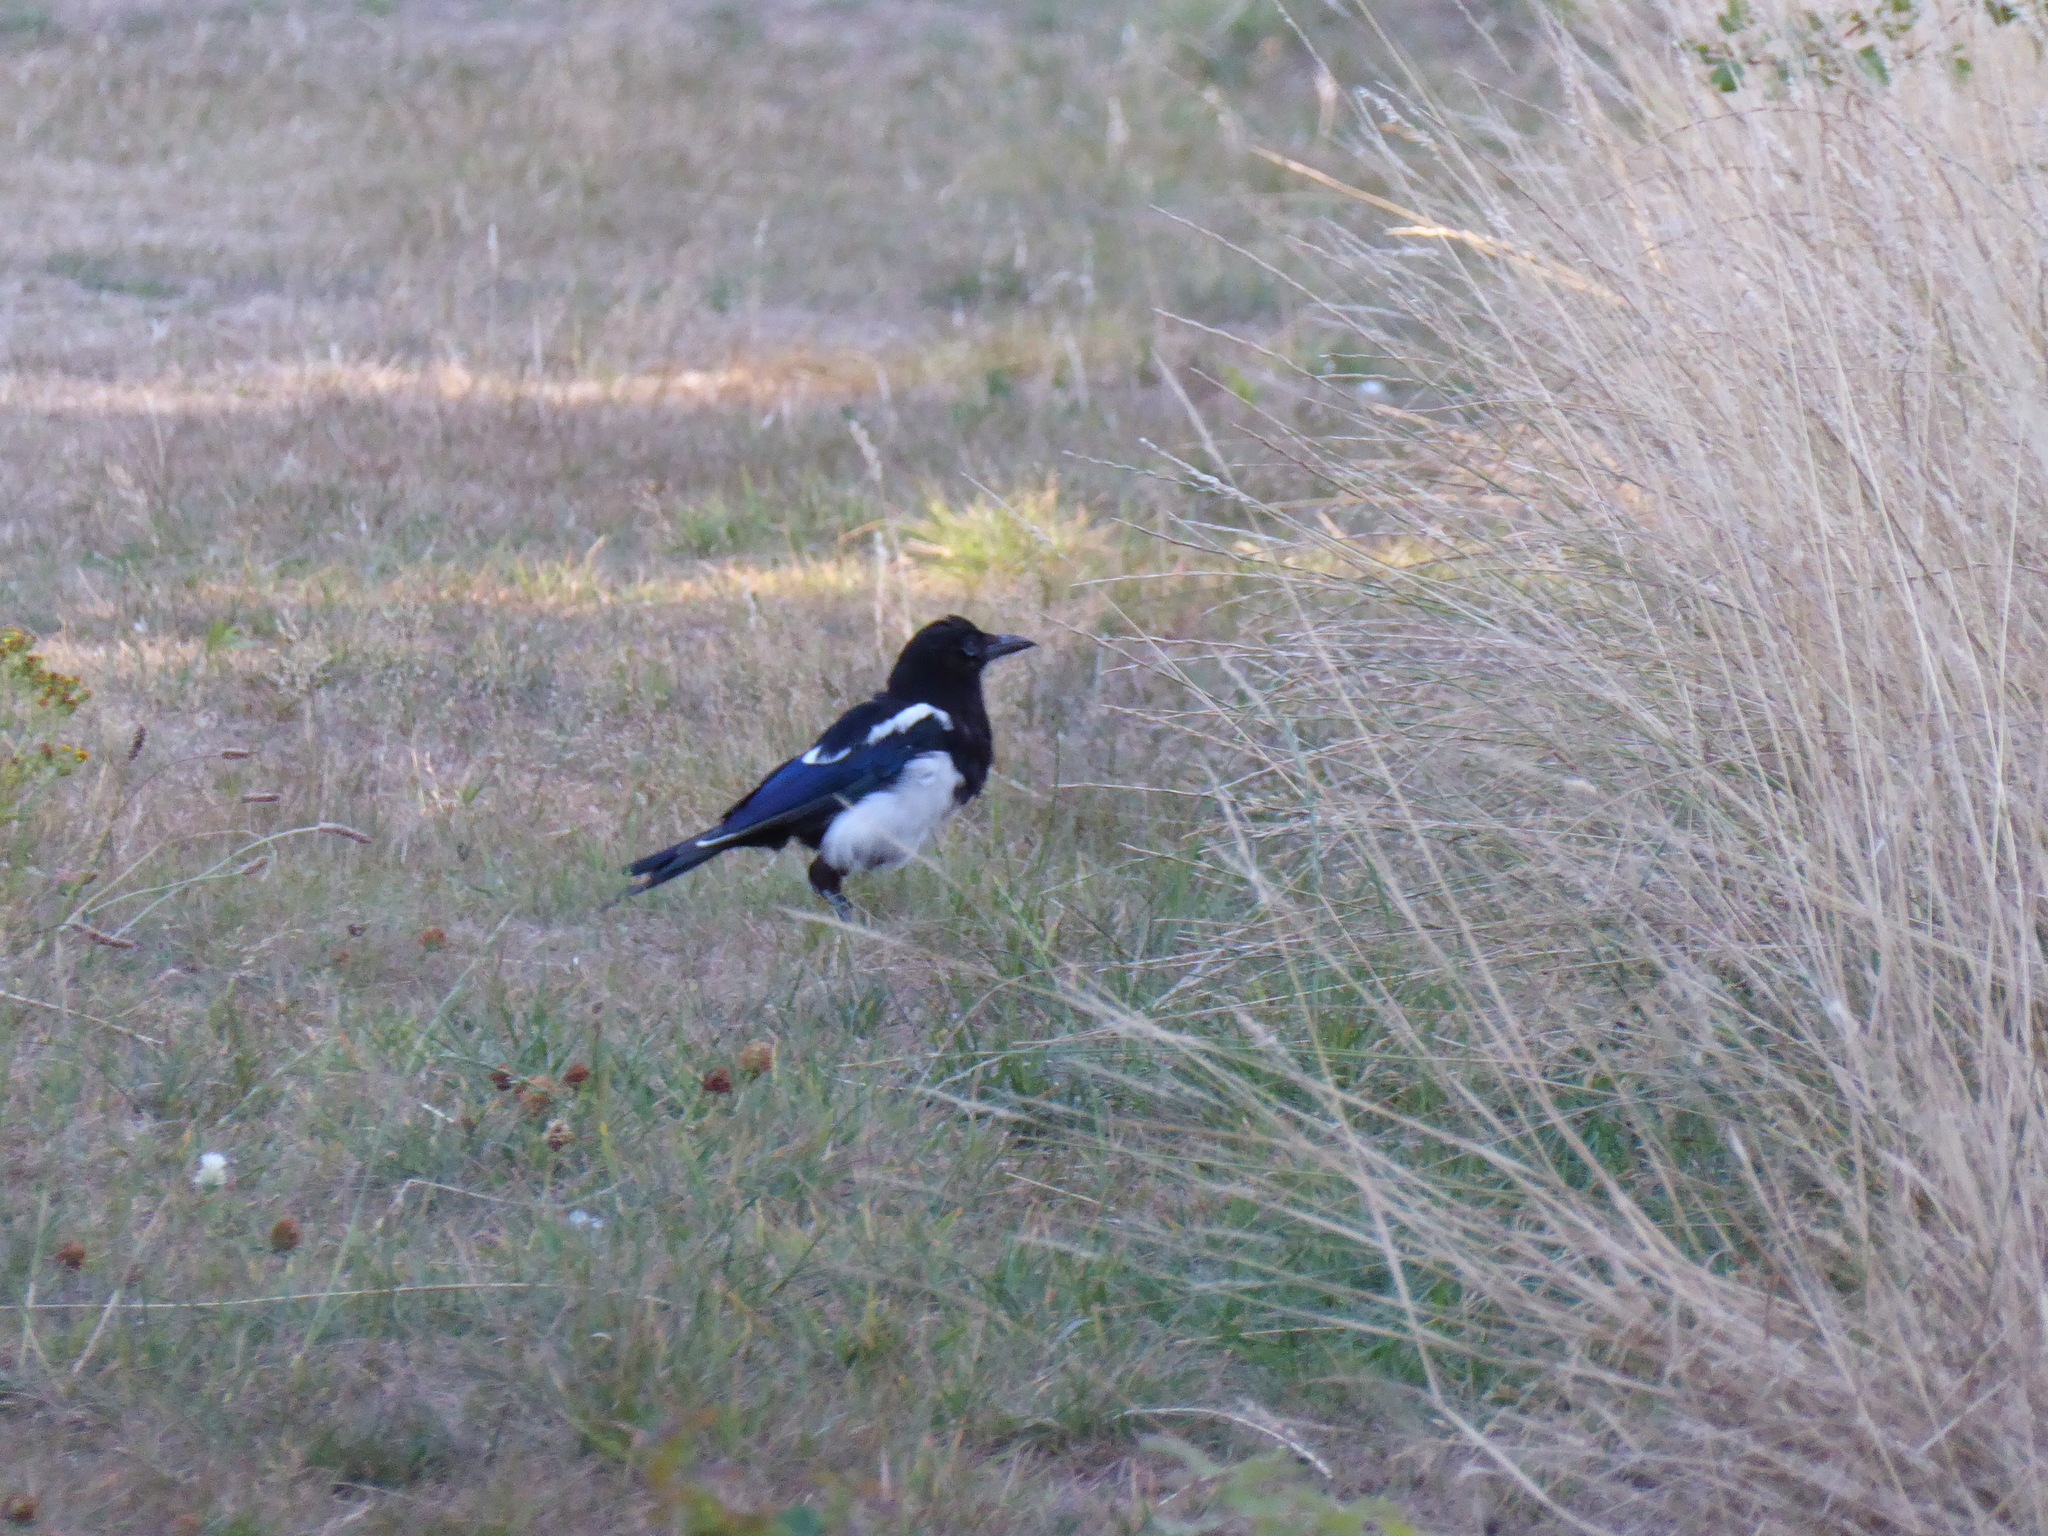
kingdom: Animalia
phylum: Chordata
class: Aves
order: Passeriformes
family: Corvidae
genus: Pica
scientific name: Pica pica
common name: Eurasian magpie
